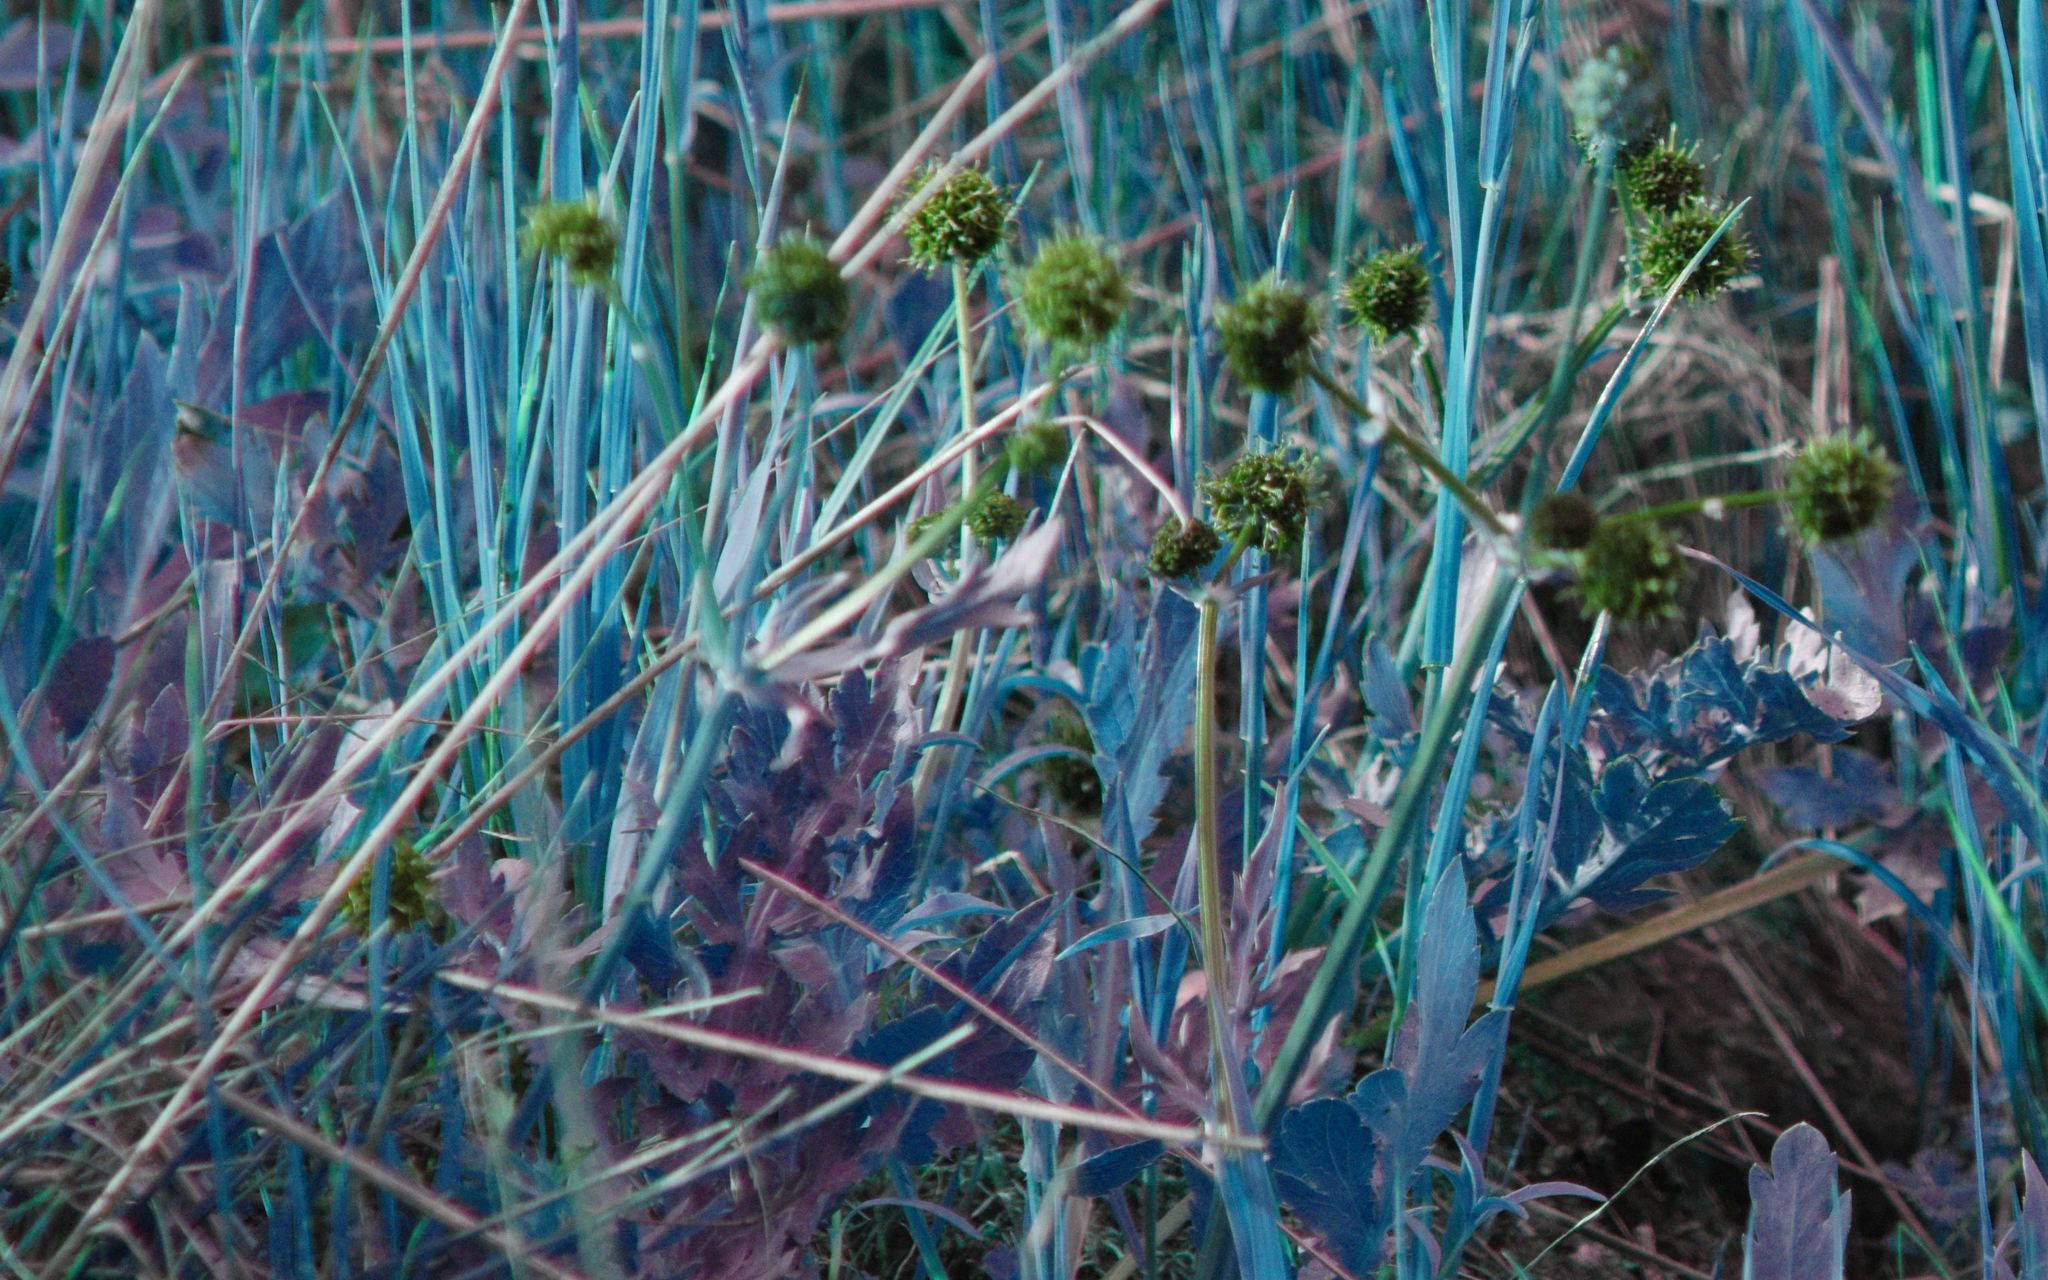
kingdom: Plantae
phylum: Tracheophyta
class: Magnoliopsida
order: Apiales
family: Apiaceae
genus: Sanicula
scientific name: Sanicula bipinnatifida
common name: Shoe-buttons
